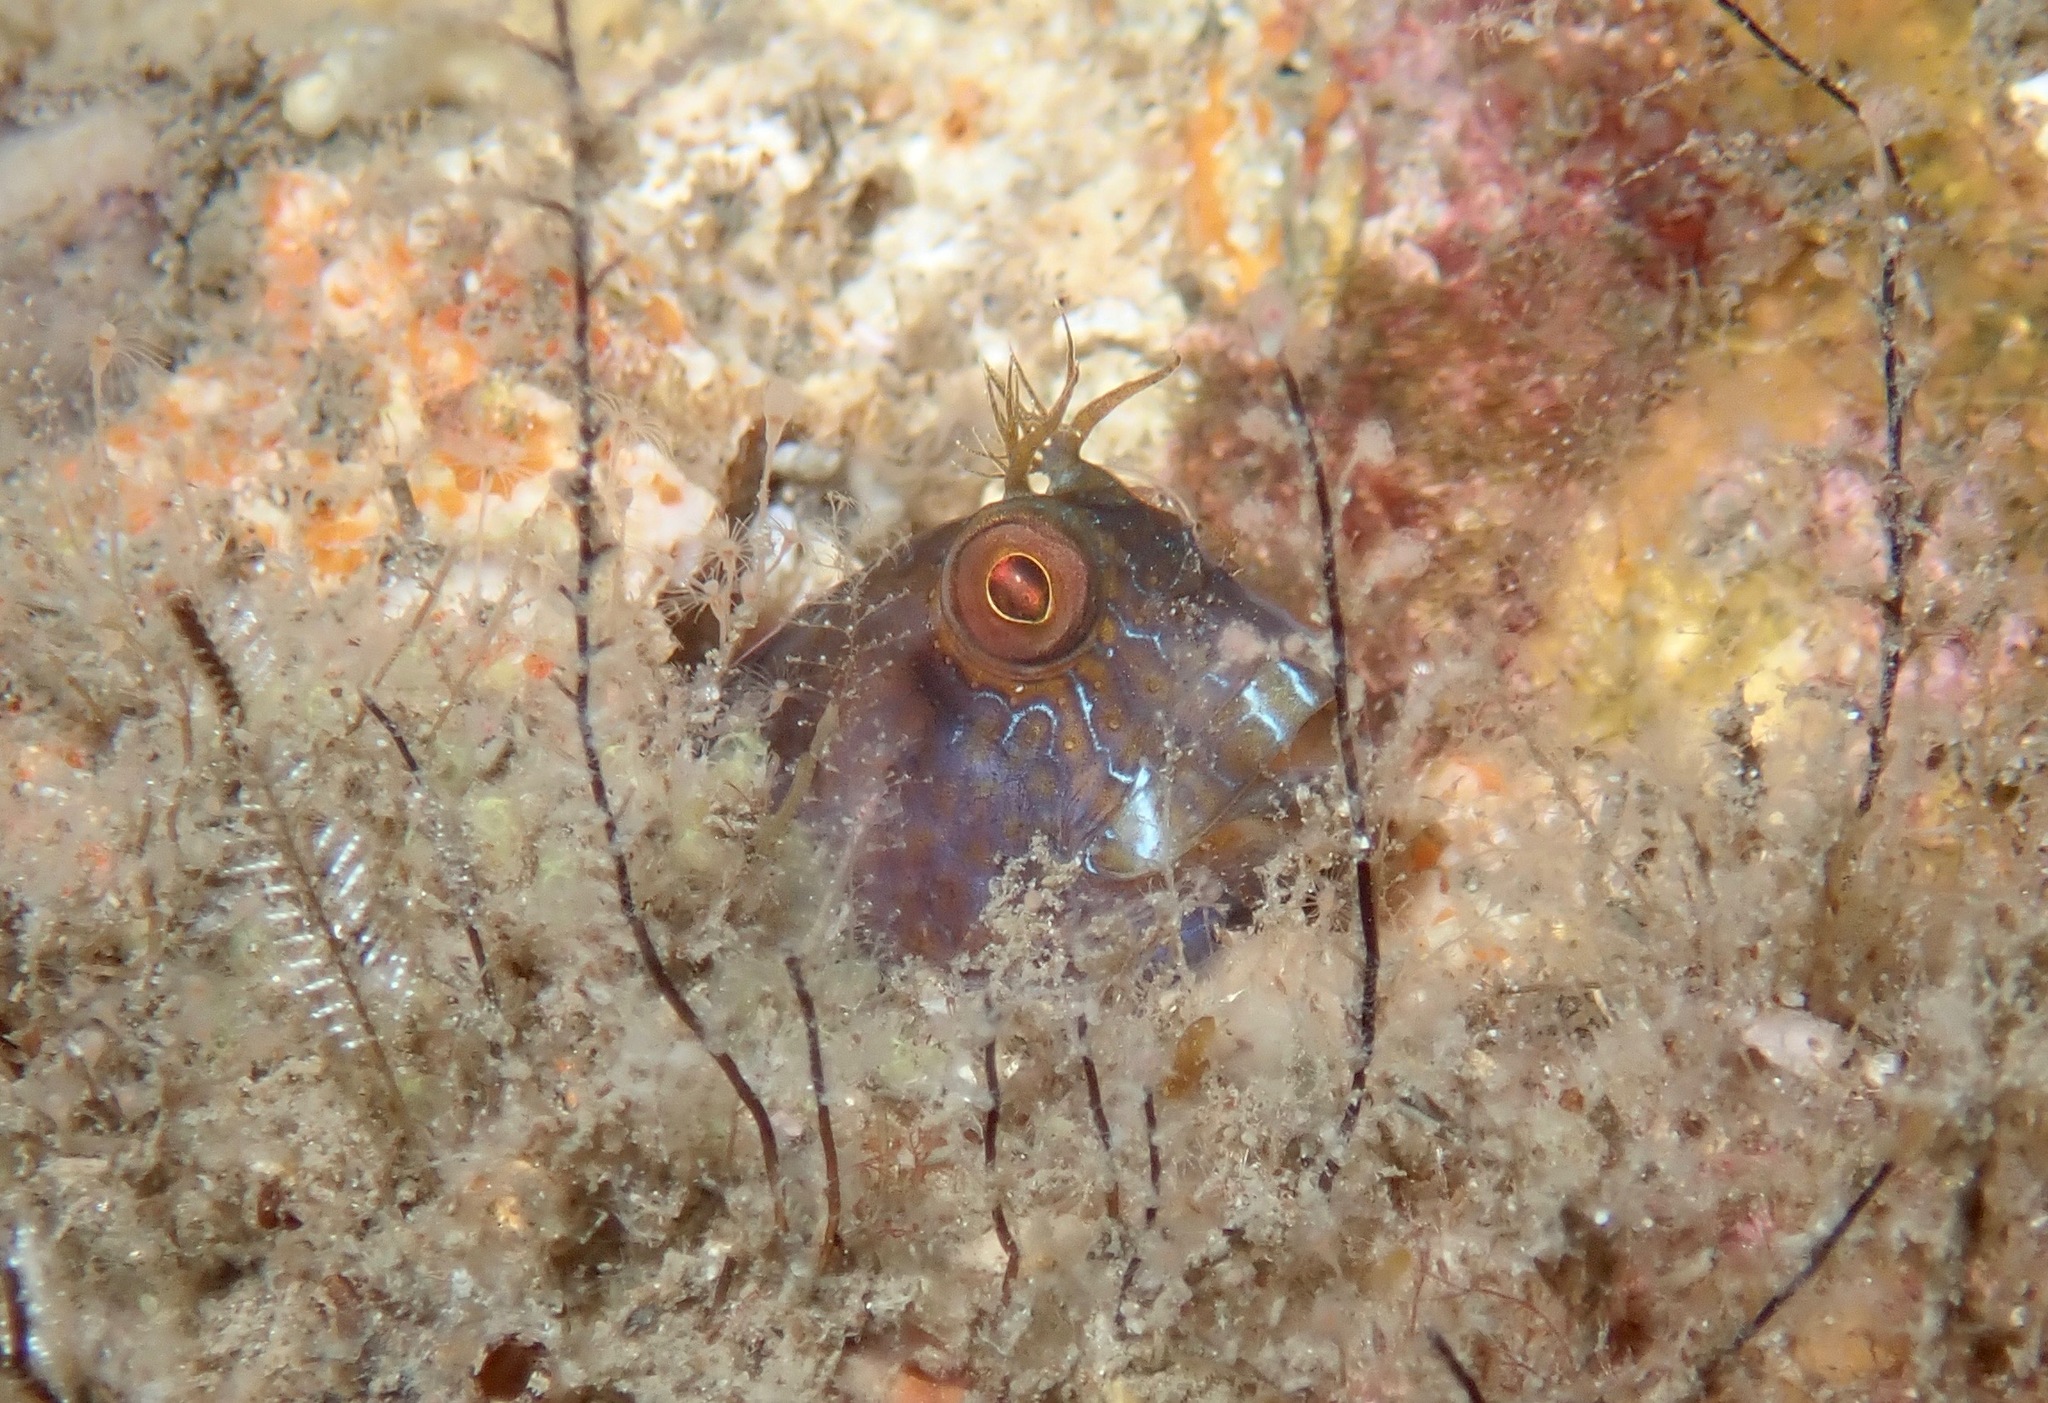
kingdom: Animalia
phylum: Chordata
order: Perciformes
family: Blenniidae
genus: Parablennius
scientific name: Parablennius marmoreus
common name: Seaweed blenny
